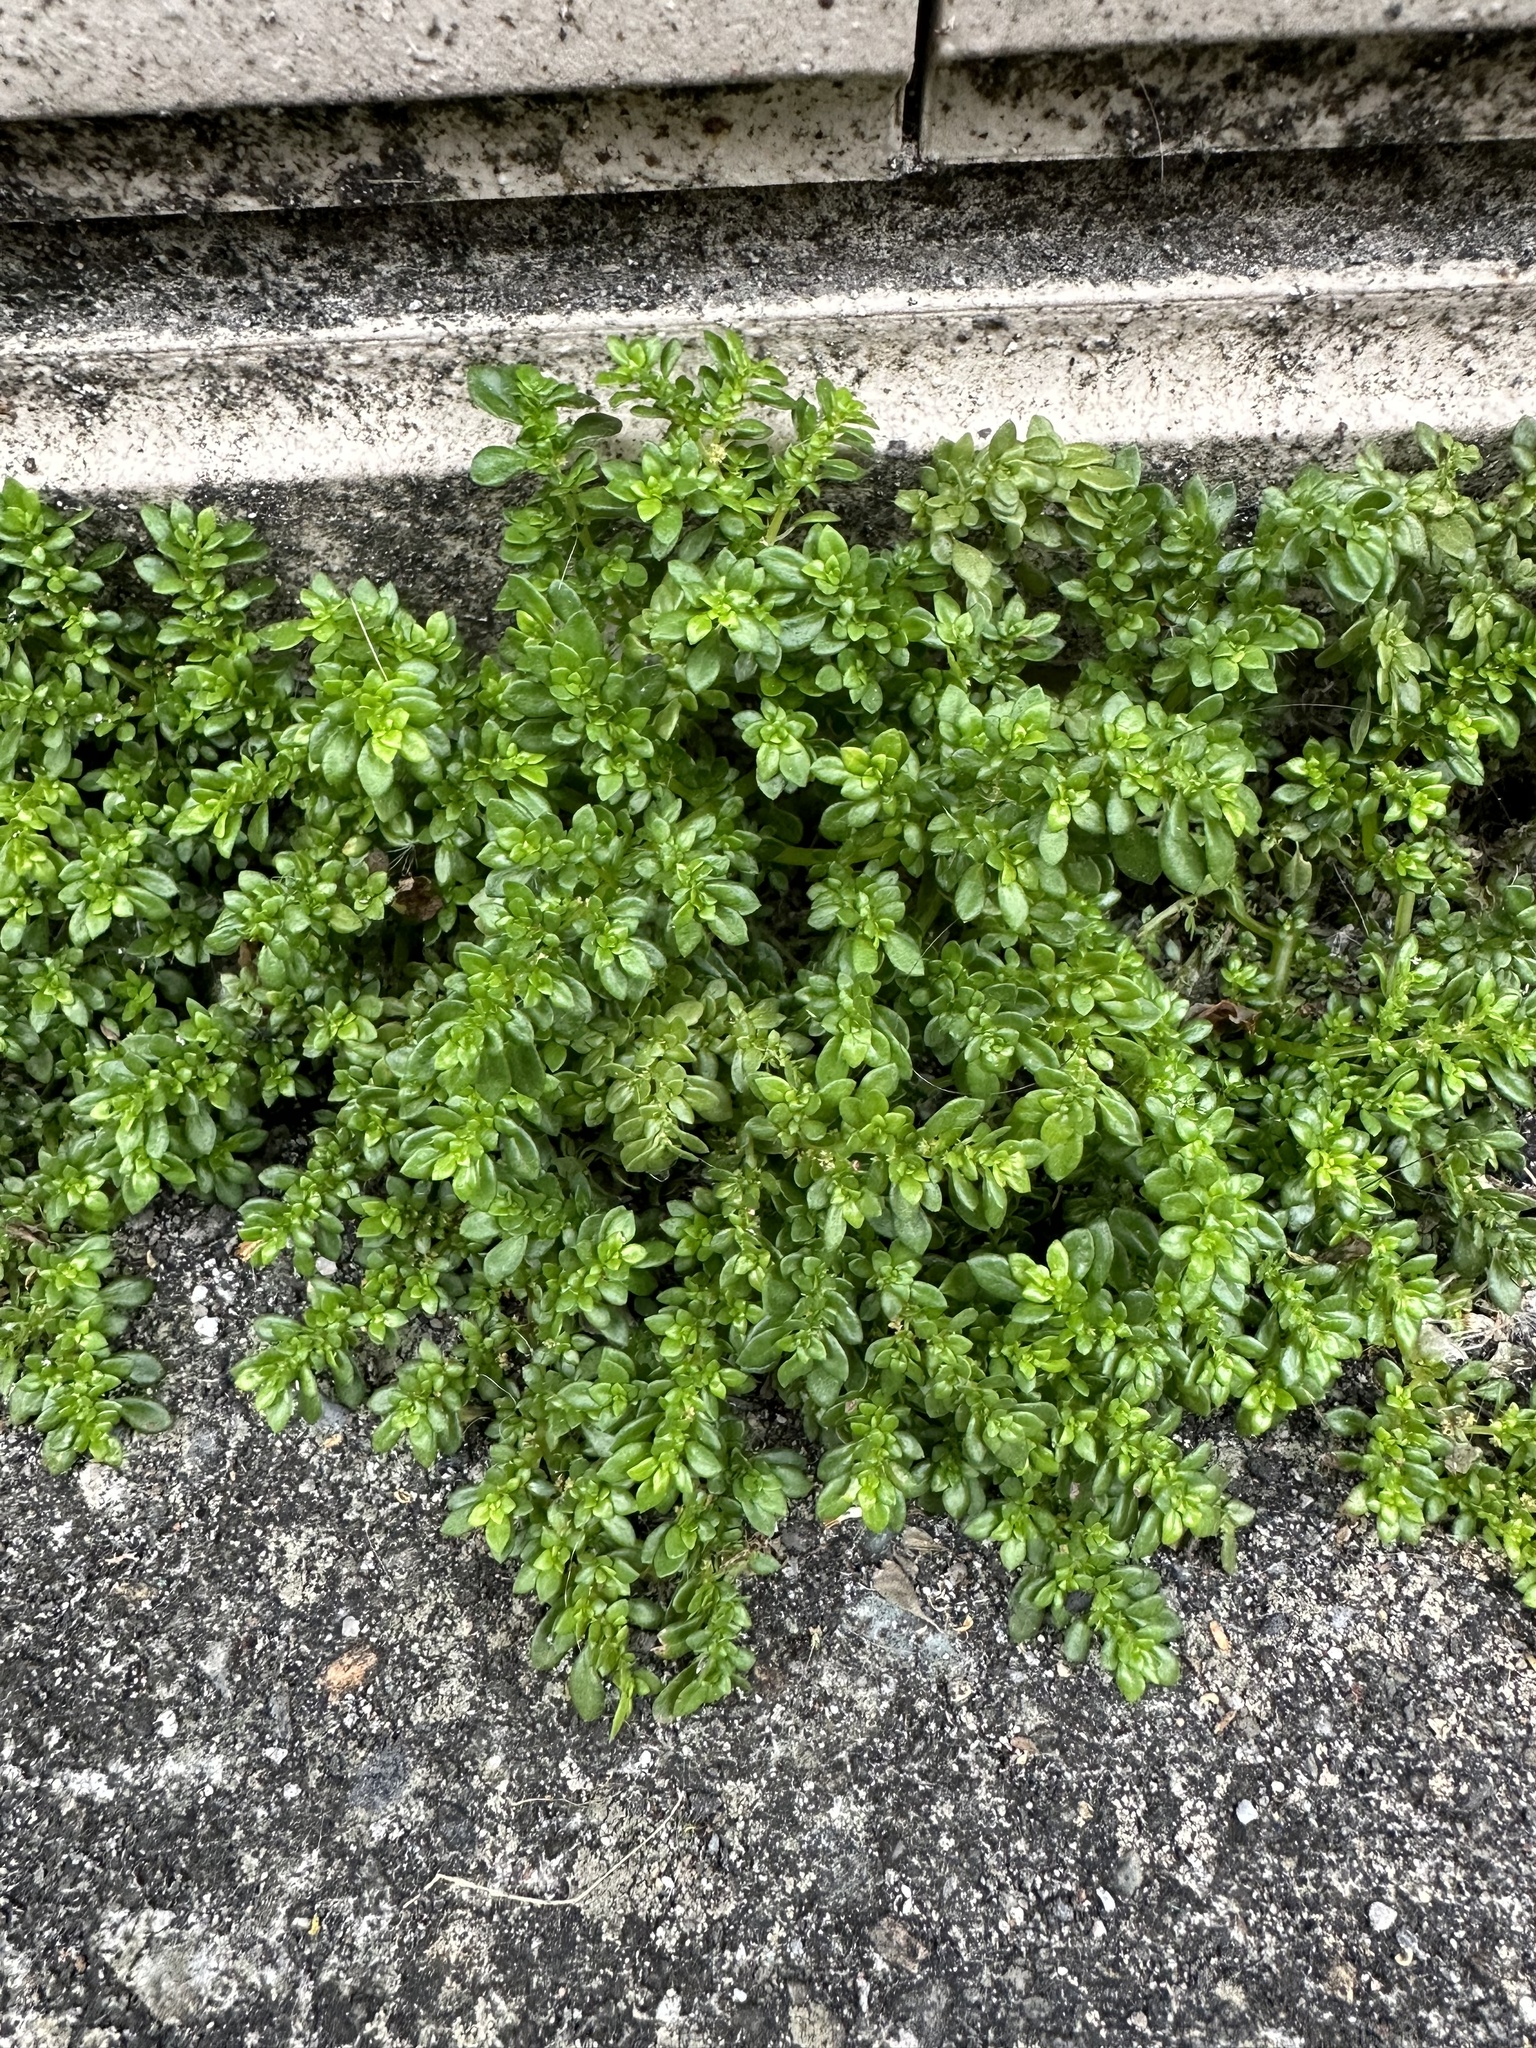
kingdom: Plantae
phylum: Tracheophyta
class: Magnoliopsida
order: Rosales
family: Urticaceae
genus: Pilea
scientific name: Pilea microphylla
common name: Artillery-plant
